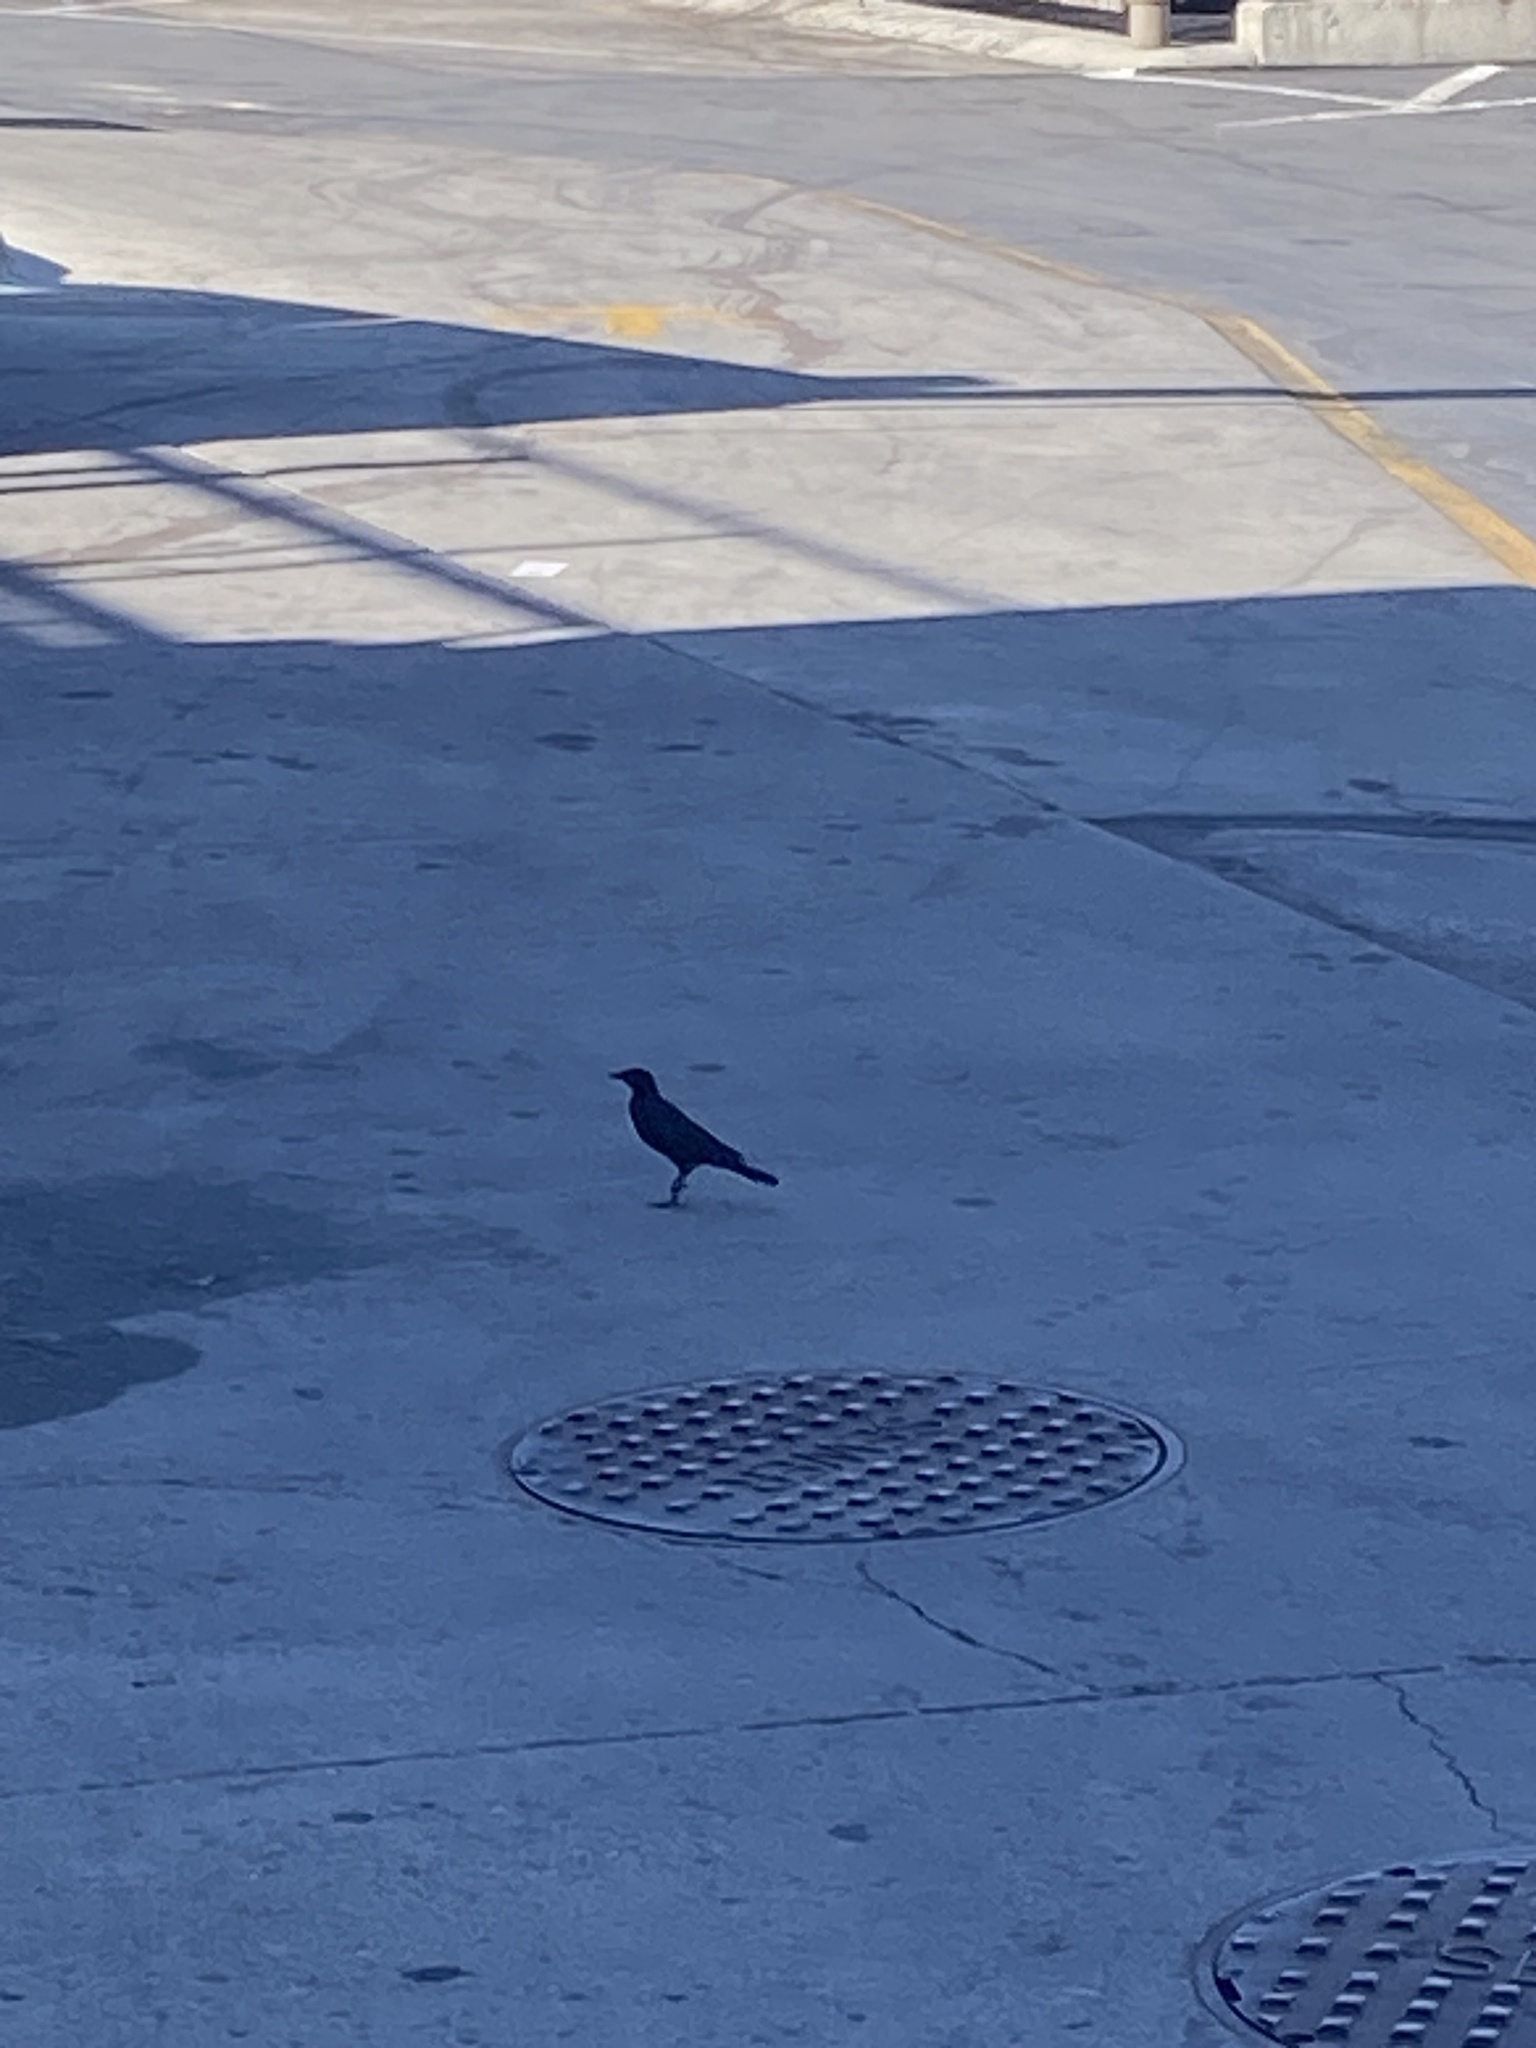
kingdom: Animalia
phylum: Chordata
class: Aves
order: Passeriformes
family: Icteridae
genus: Euphagus
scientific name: Euphagus cyanocephalus
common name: Brewer's blackbird
